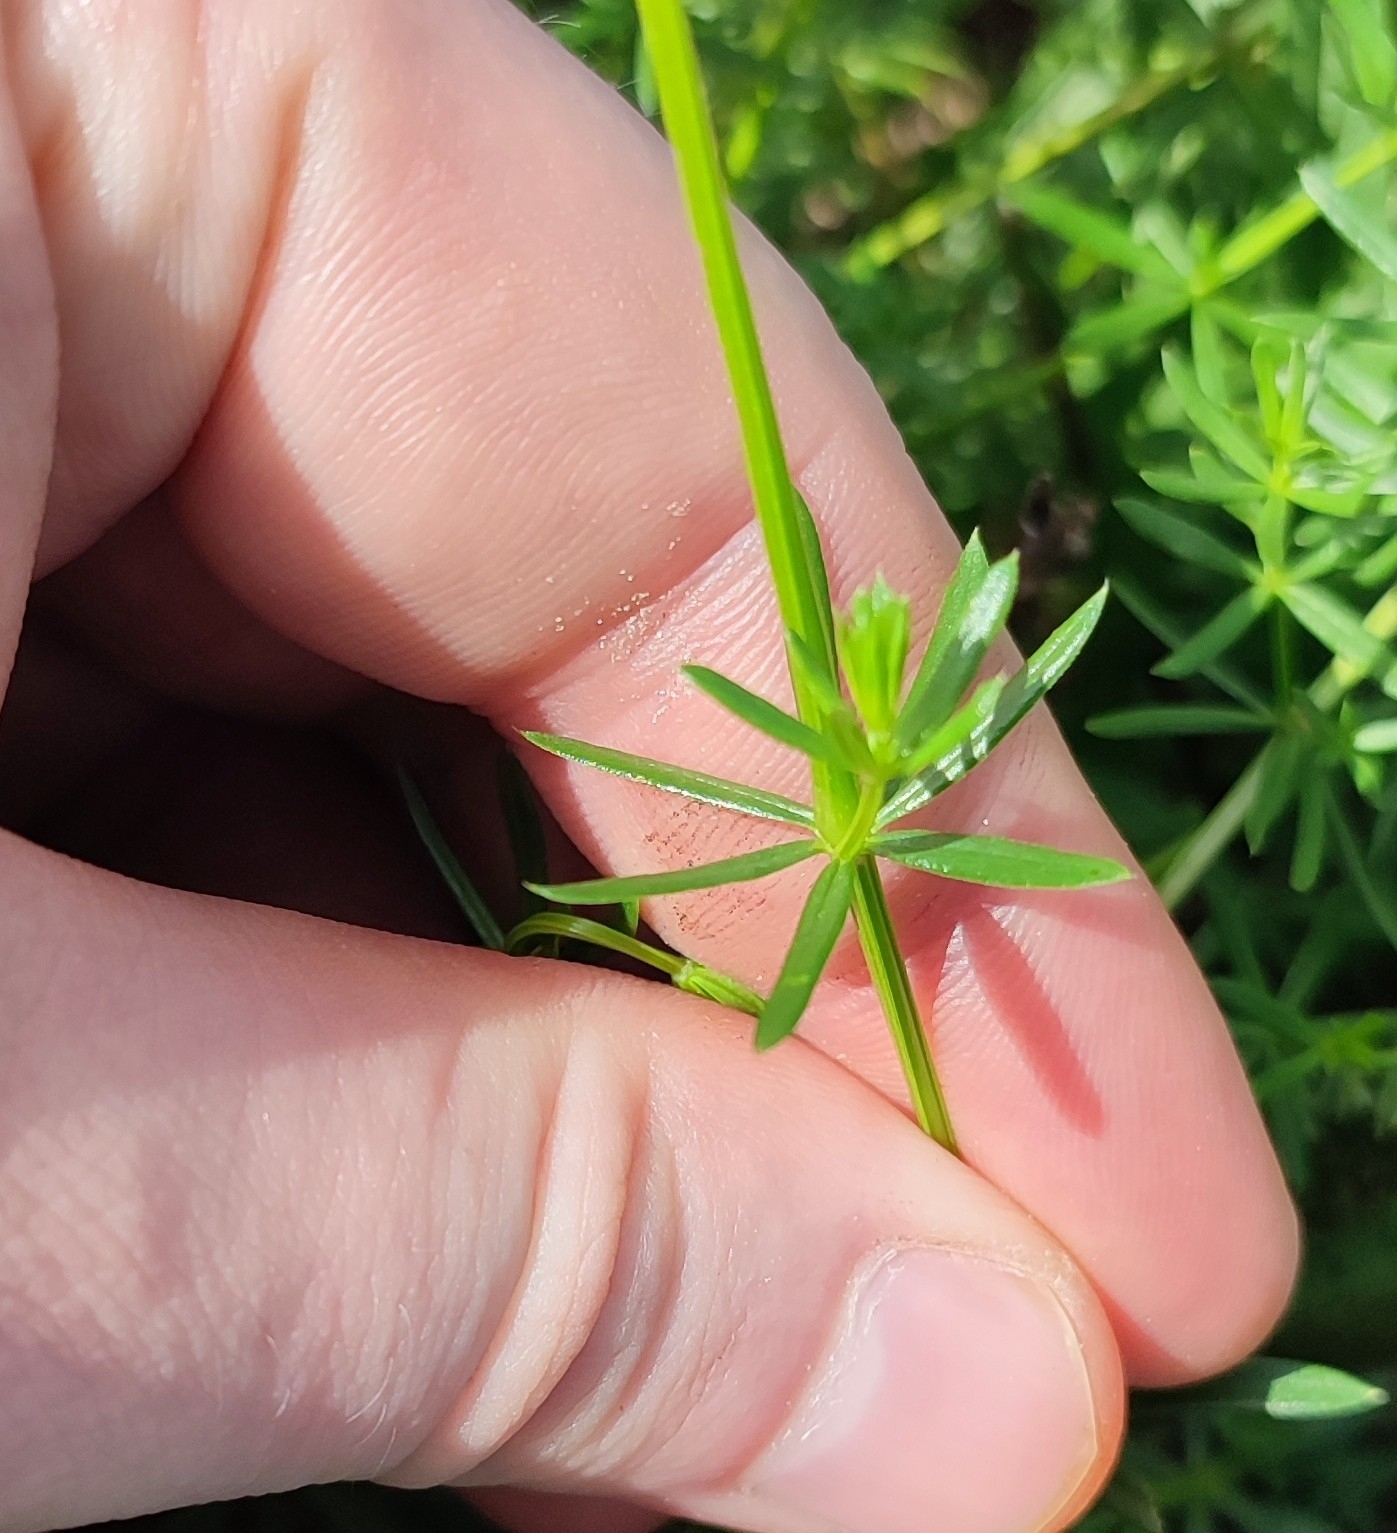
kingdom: Plantae
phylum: Tracheophyta
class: Magnoliopsida
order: Gentianales
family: Rubiaceae
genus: Galium
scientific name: Galium mollugo
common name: Hedge bedstraw
